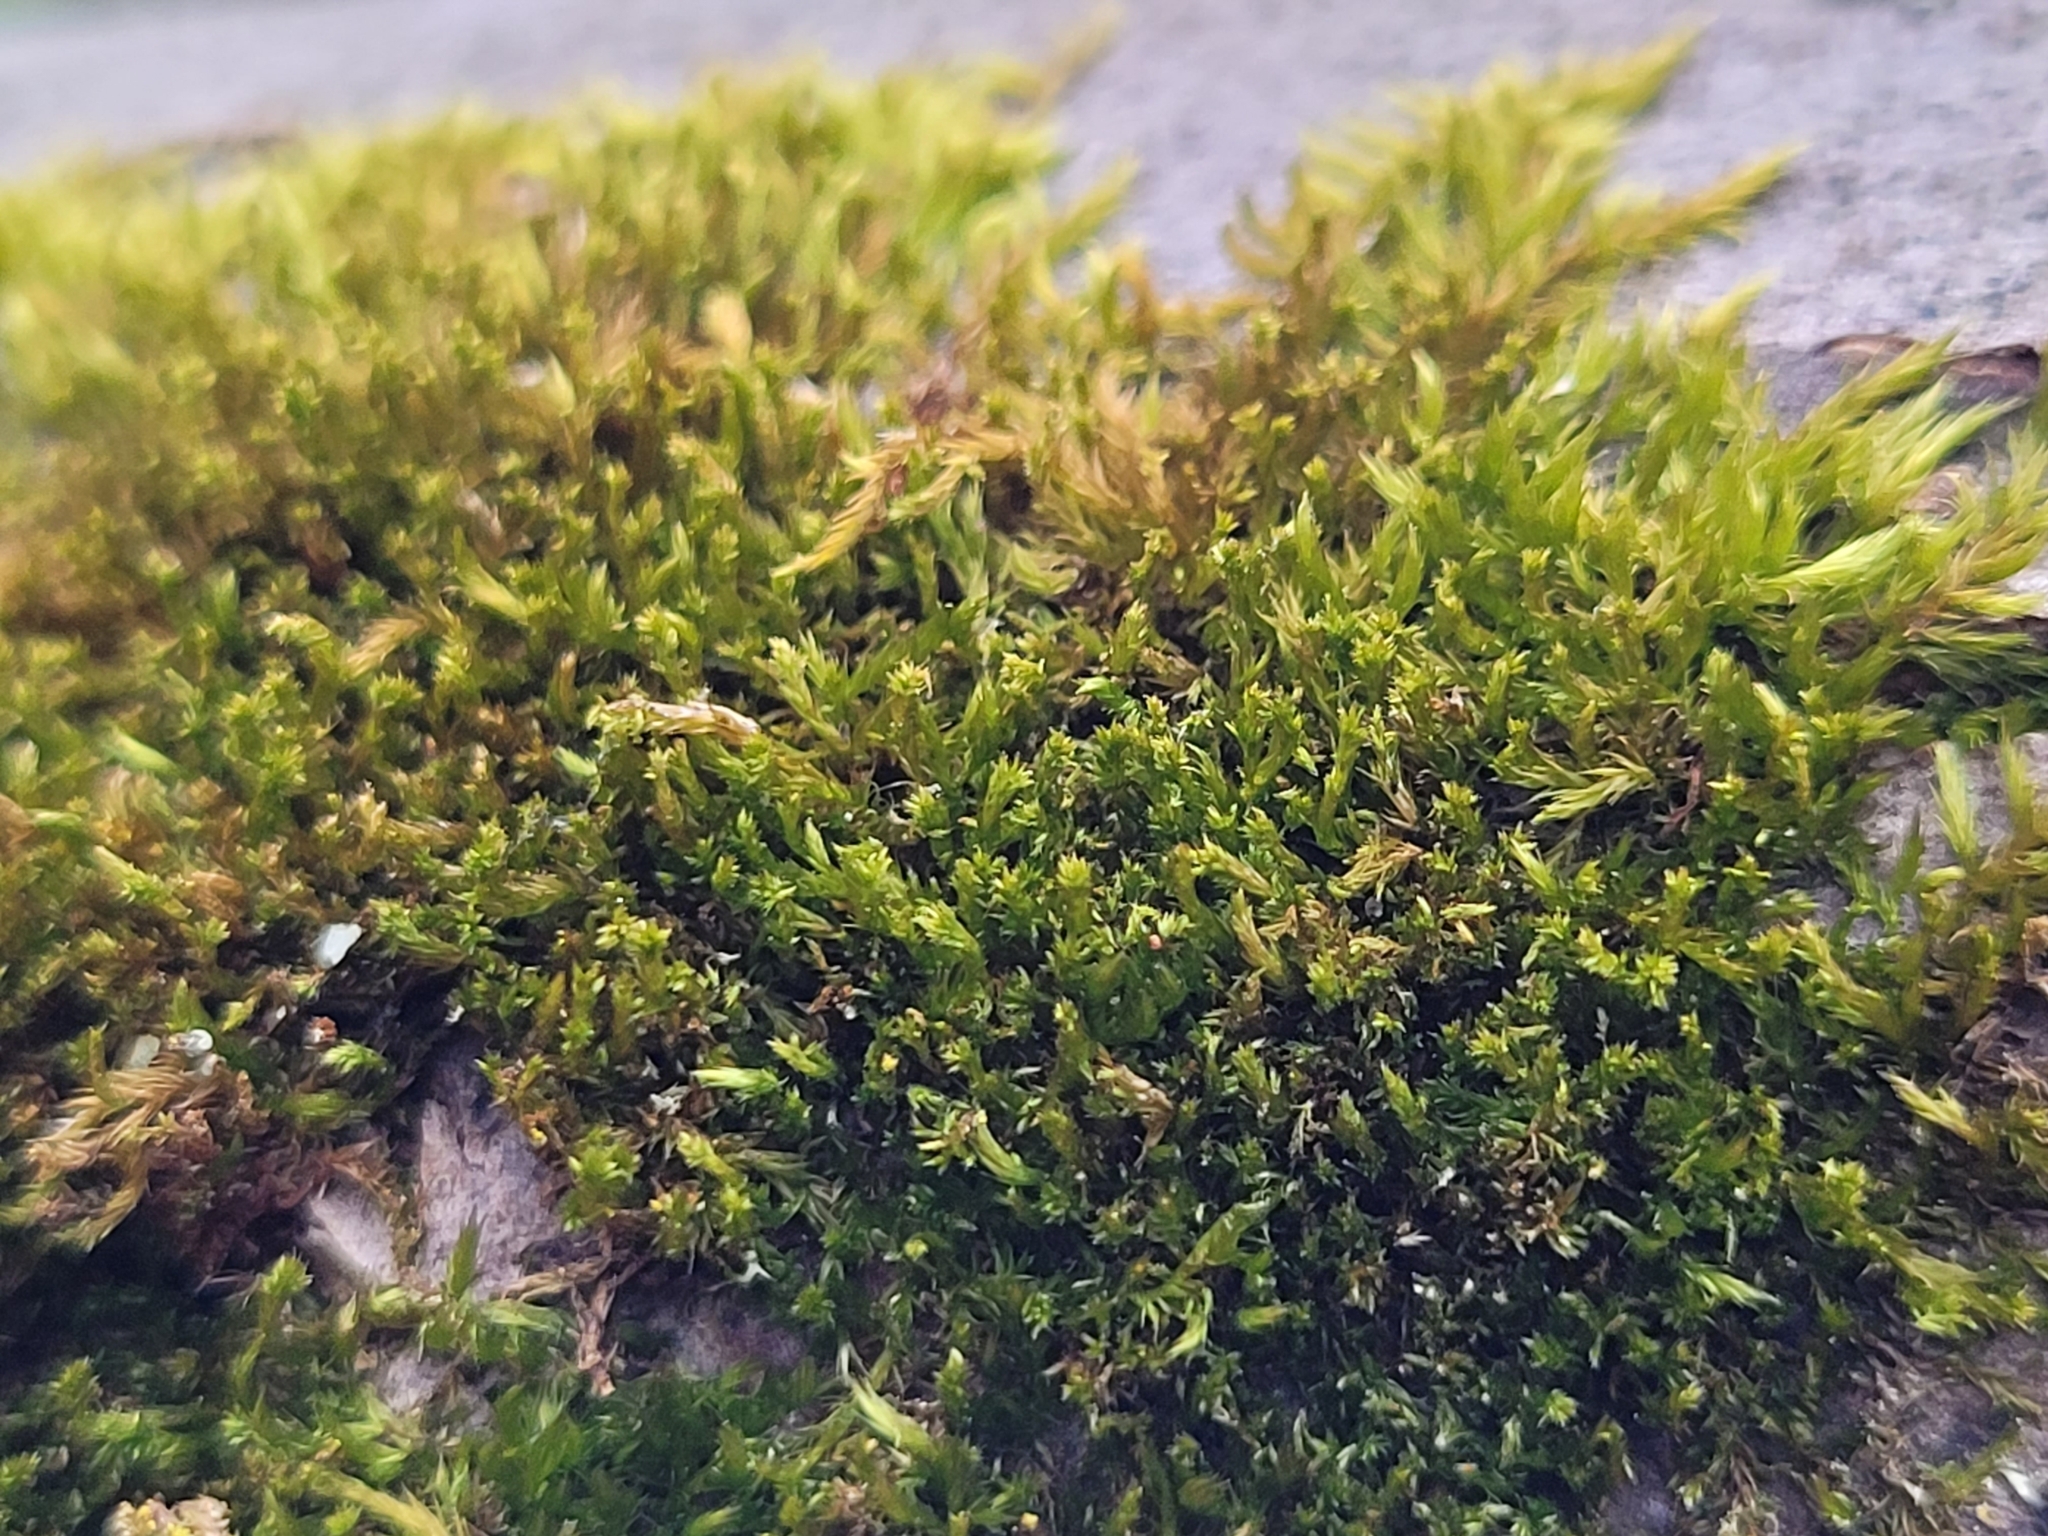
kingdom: Plantae
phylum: Bryophyta
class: Bryopsida
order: Hypnales
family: Pylaisiadelphaceae
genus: Platygyrium
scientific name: Platygyrium repens
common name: Flat-brocade moss
